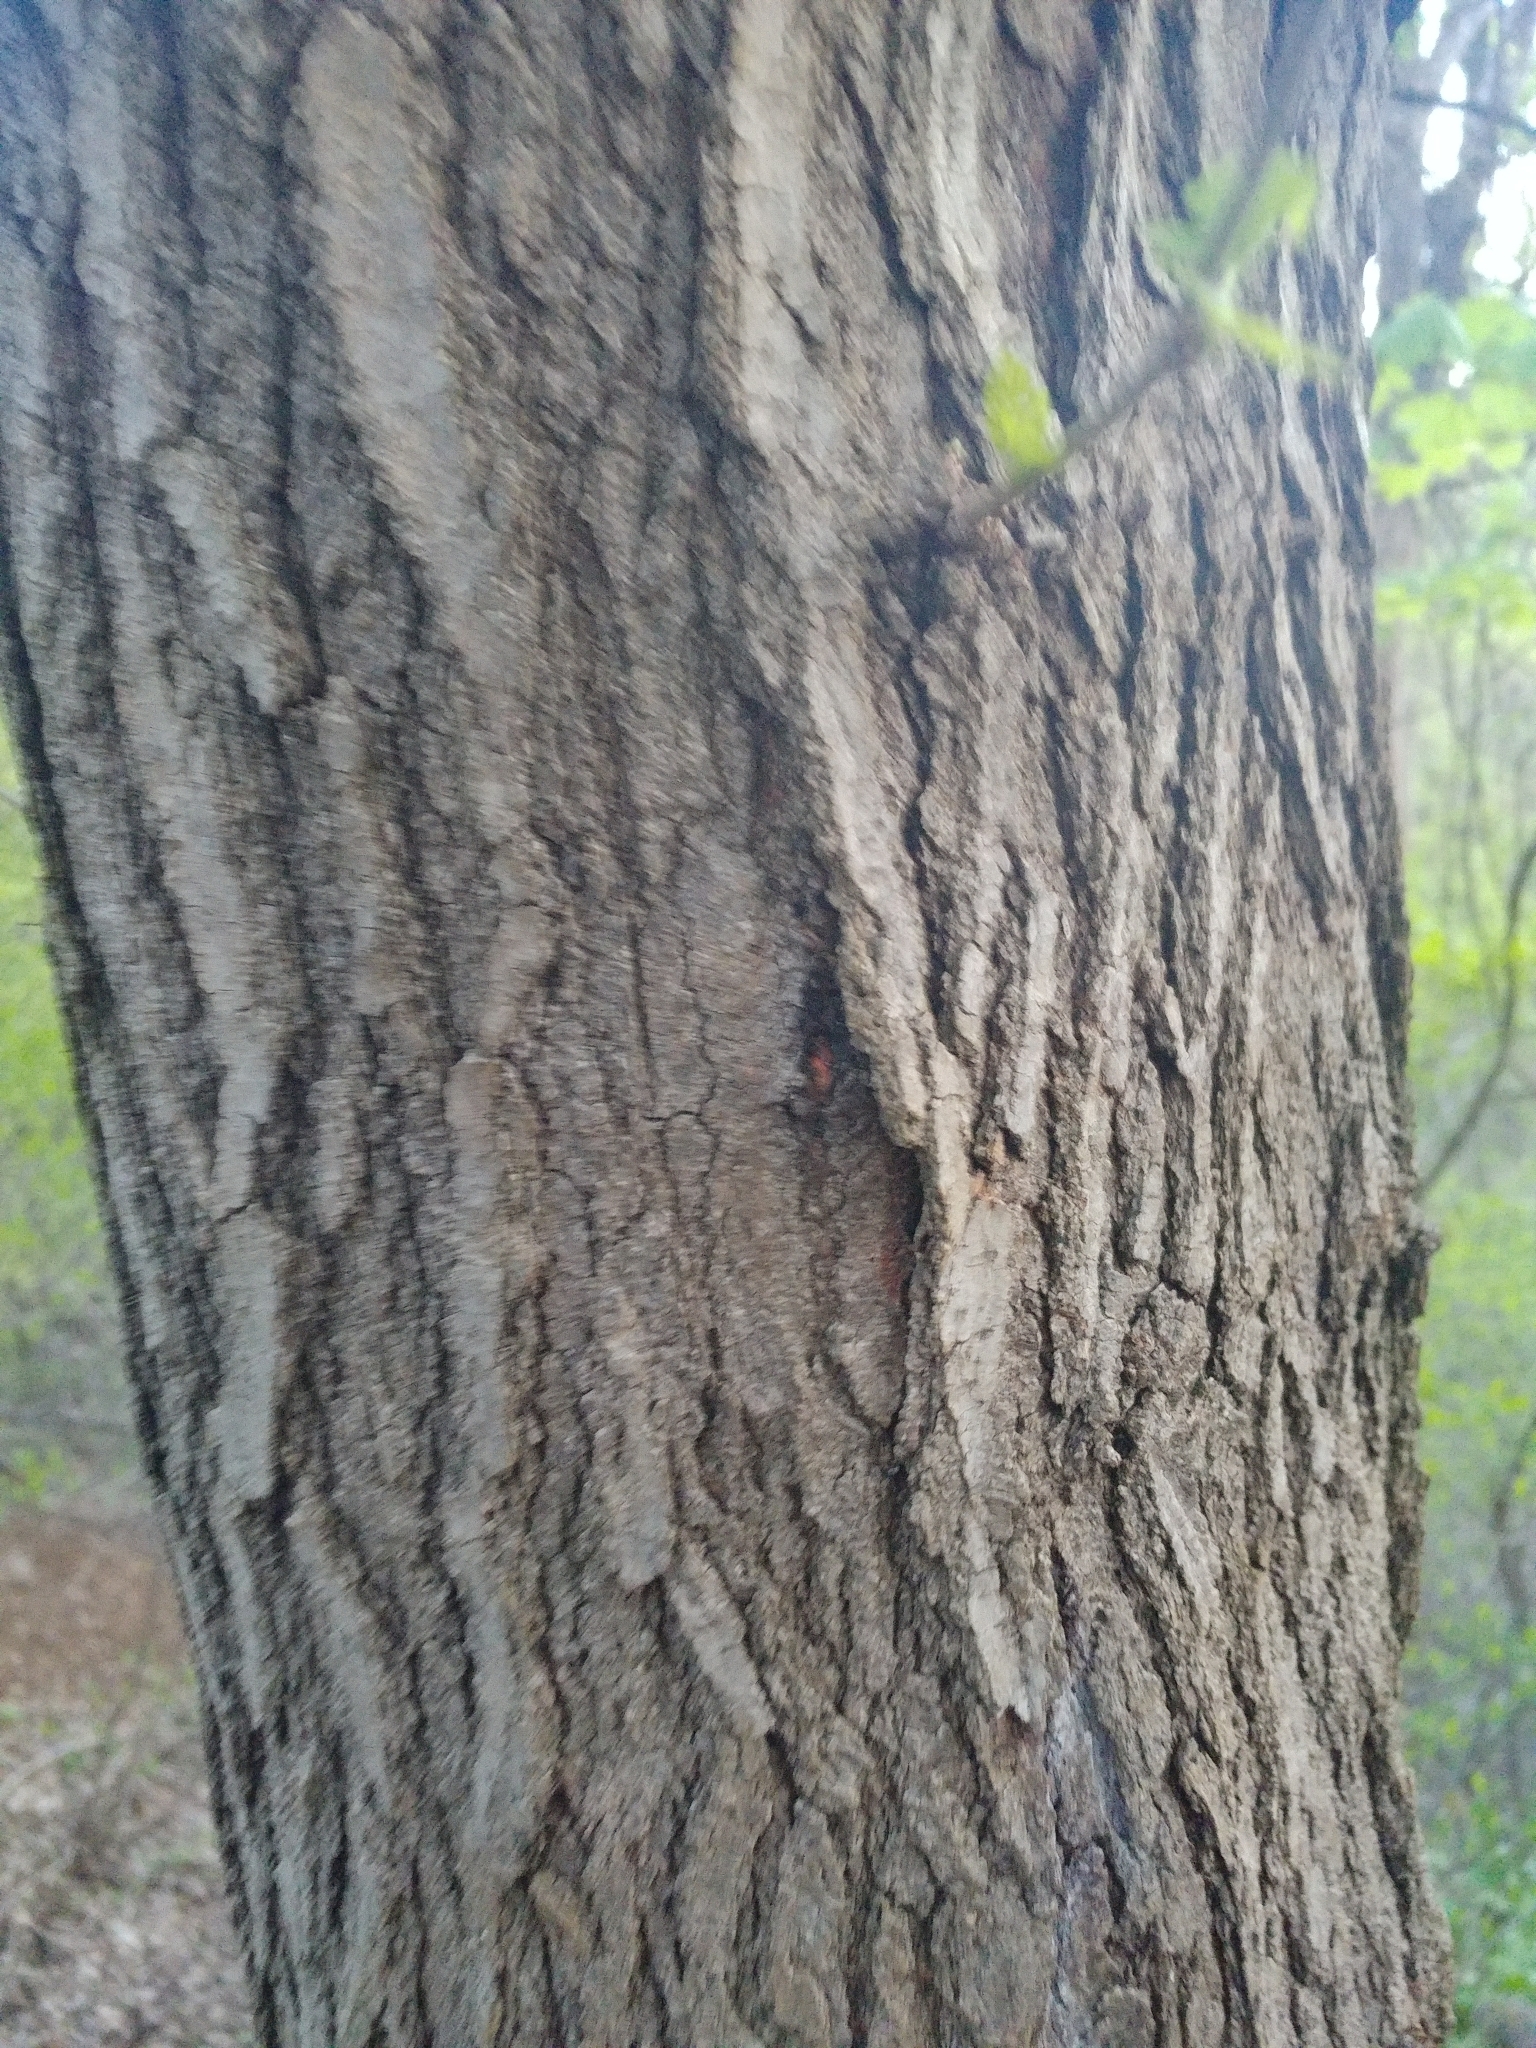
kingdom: Plantae
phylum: Tracheophyta
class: Magnoliopsida
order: Rosales
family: Moraceae
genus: Morus
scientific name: Morus alba
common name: White mulberry
